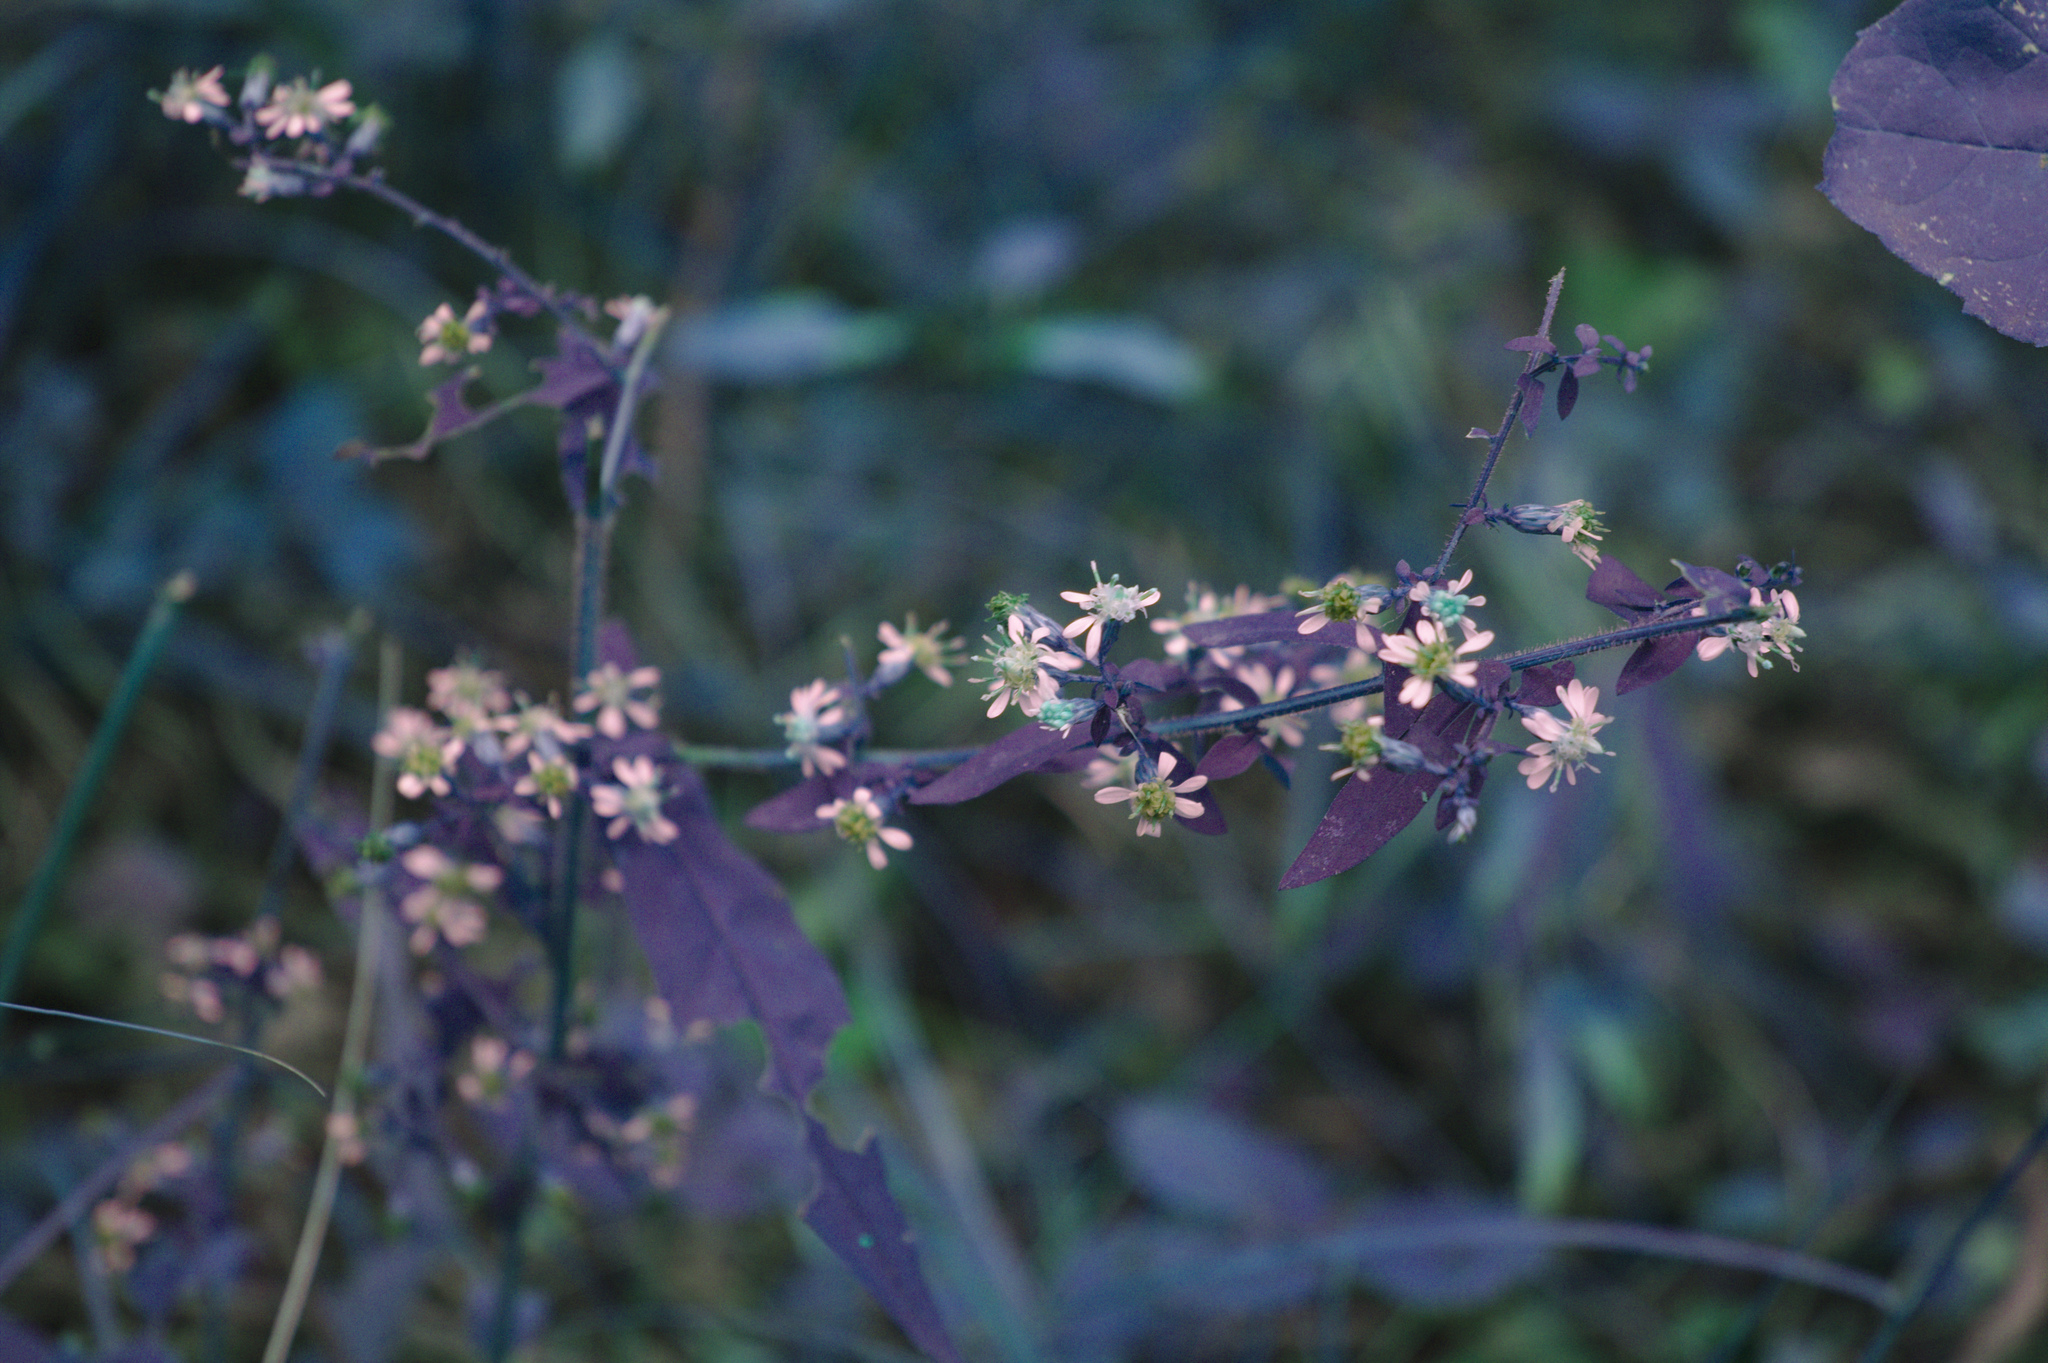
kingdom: Plantae
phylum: Tracheophyta
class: Magnoliopsida
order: Asterales
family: Asteraceae
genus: Symphyotrichum
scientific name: Symphyotrichum lateriflorum
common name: Calico aster
